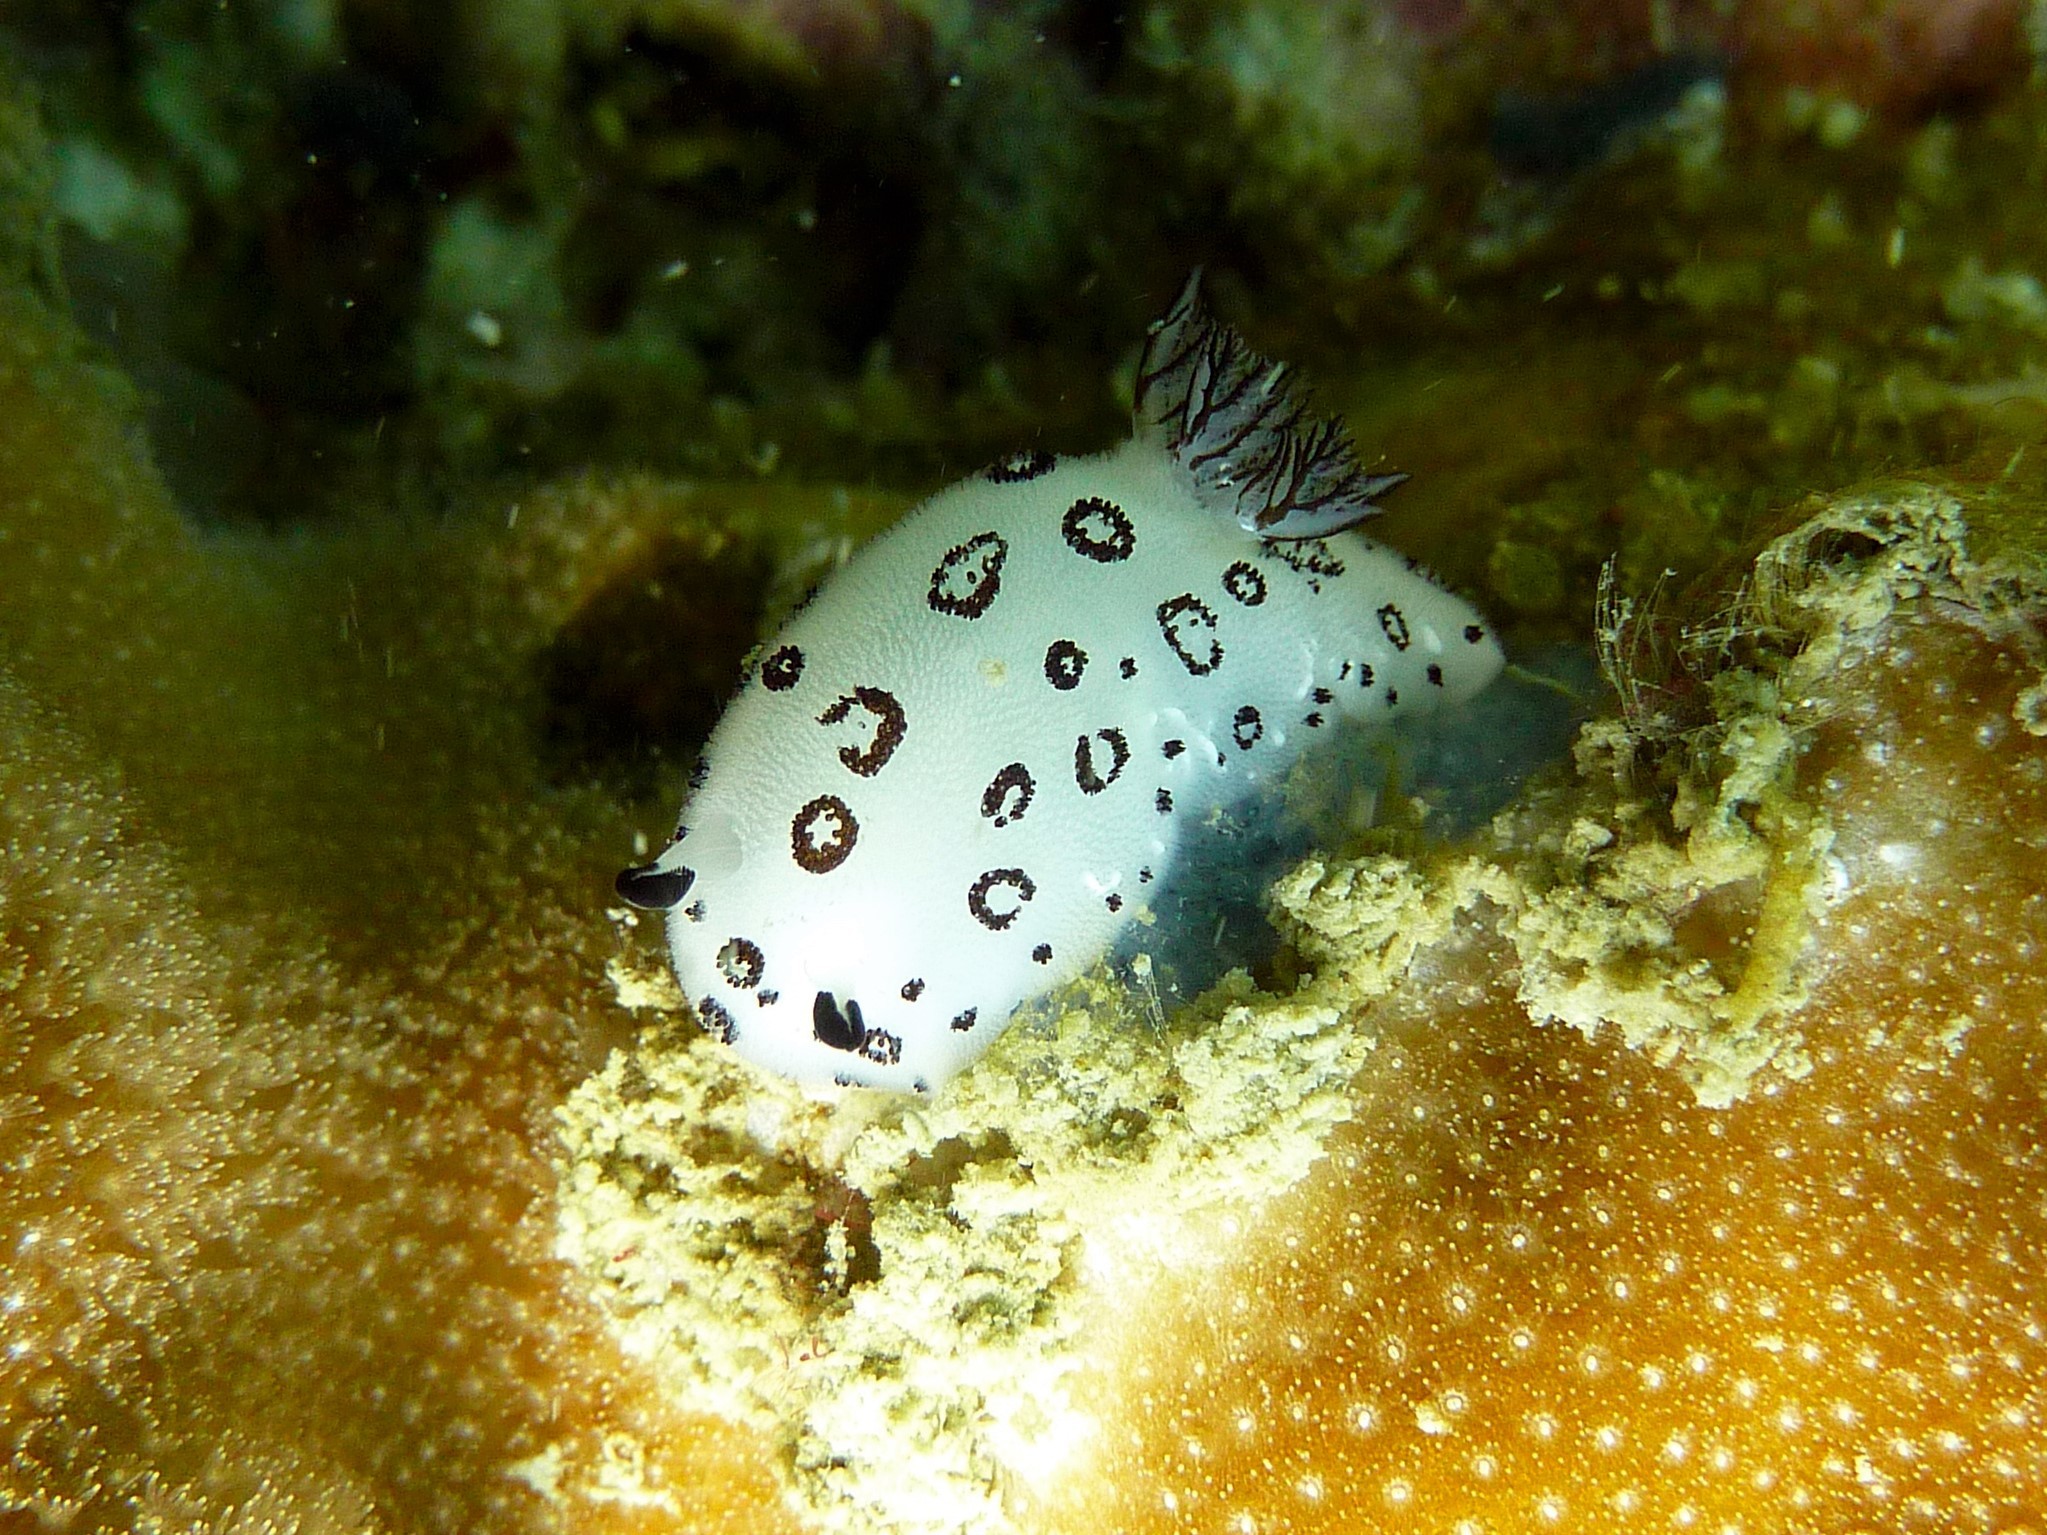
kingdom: Animalia
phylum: Mollusca
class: Gastropoda
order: Nudibranchia
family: Discodorididae
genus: Jorunna
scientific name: Jorunna funebris
